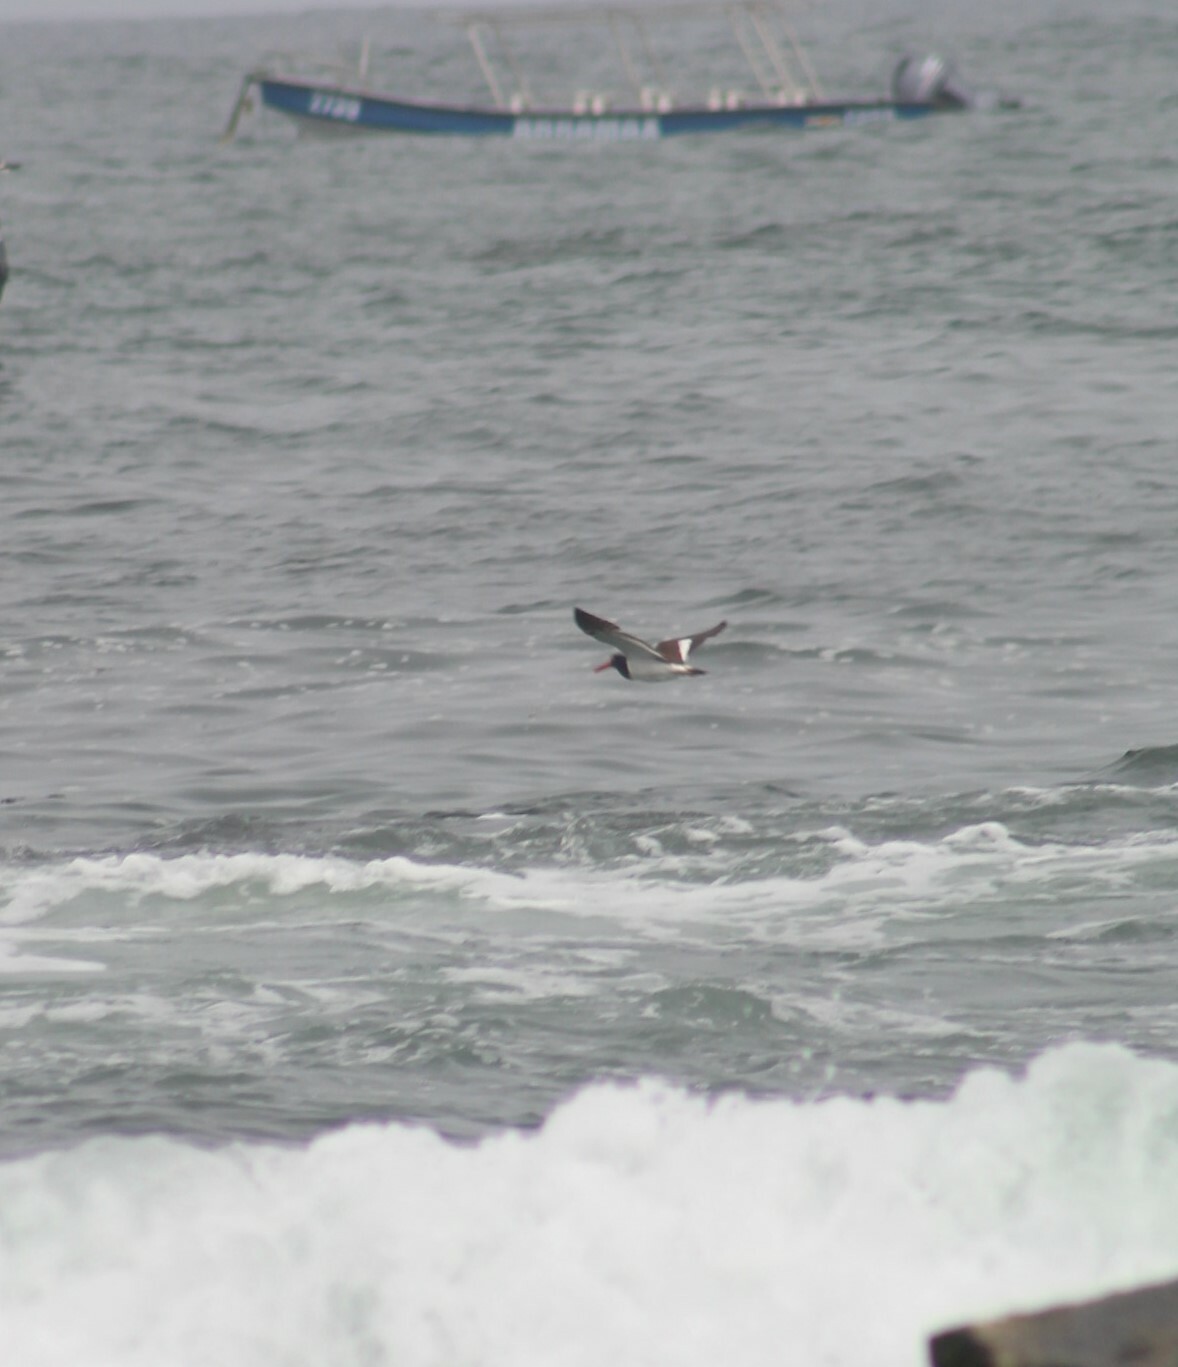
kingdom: Animalia
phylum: Chordata
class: Aves
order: Charadriiformes
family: Haematopodidae
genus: Haematopus
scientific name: Haematopus palliatus
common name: American oystercatcher
